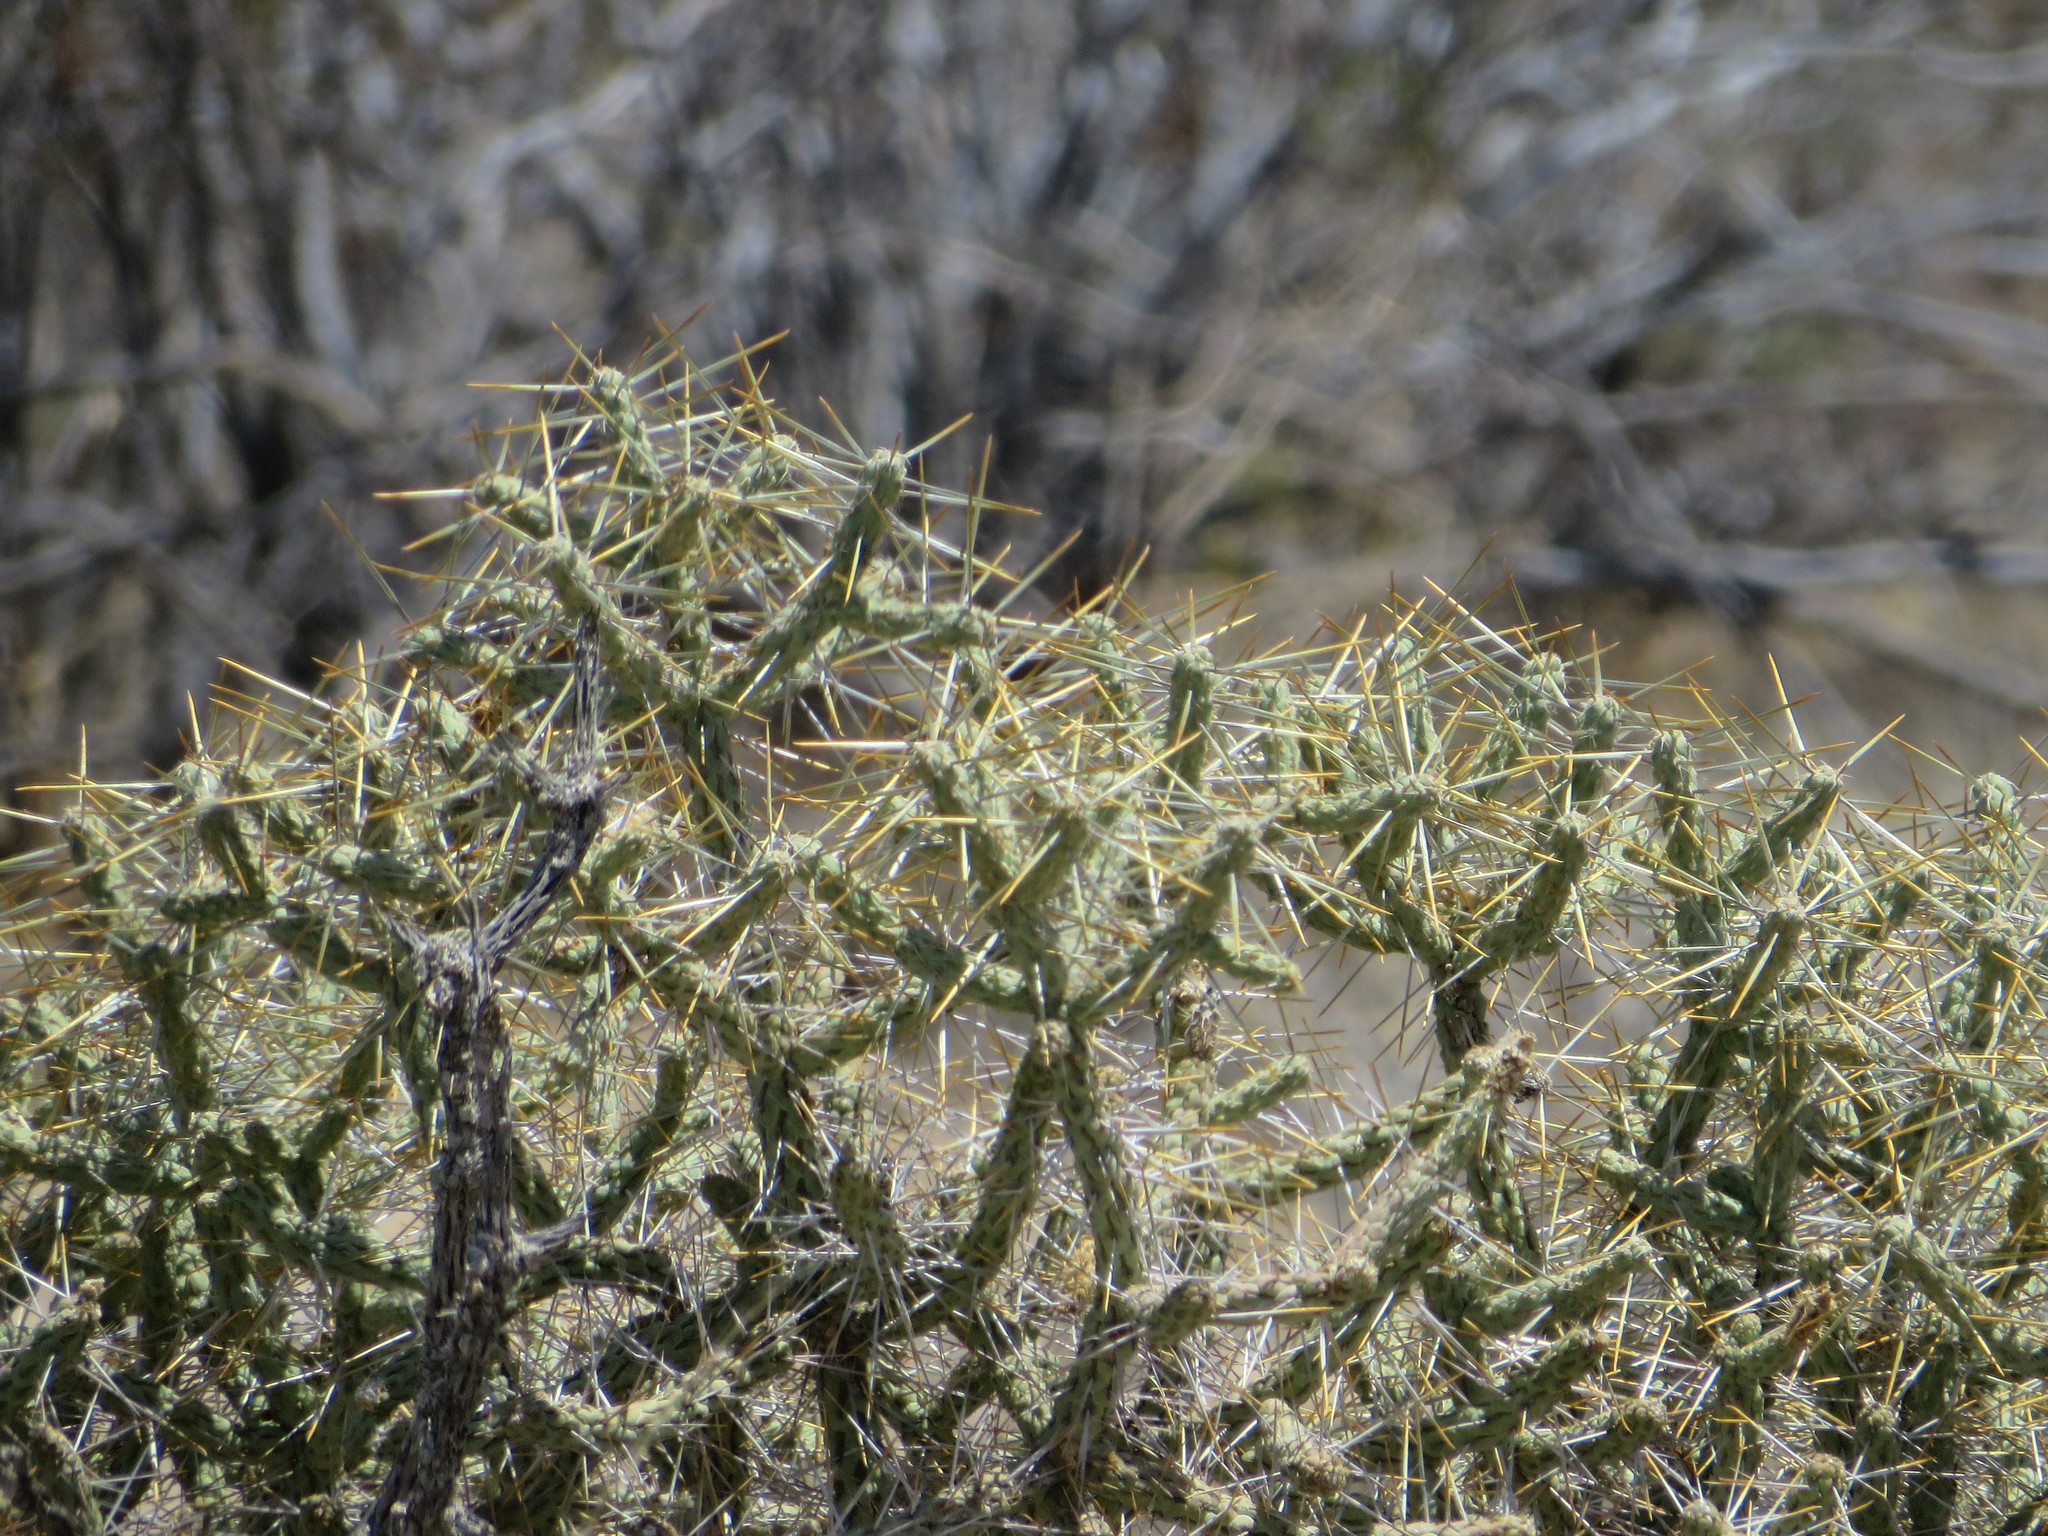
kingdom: Plantae
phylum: Tracheophyta
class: Magnoliopsida
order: Caryophyllales
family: Cactaceae
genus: Cylindropuntia
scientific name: Cylindropuntia ramosissima
